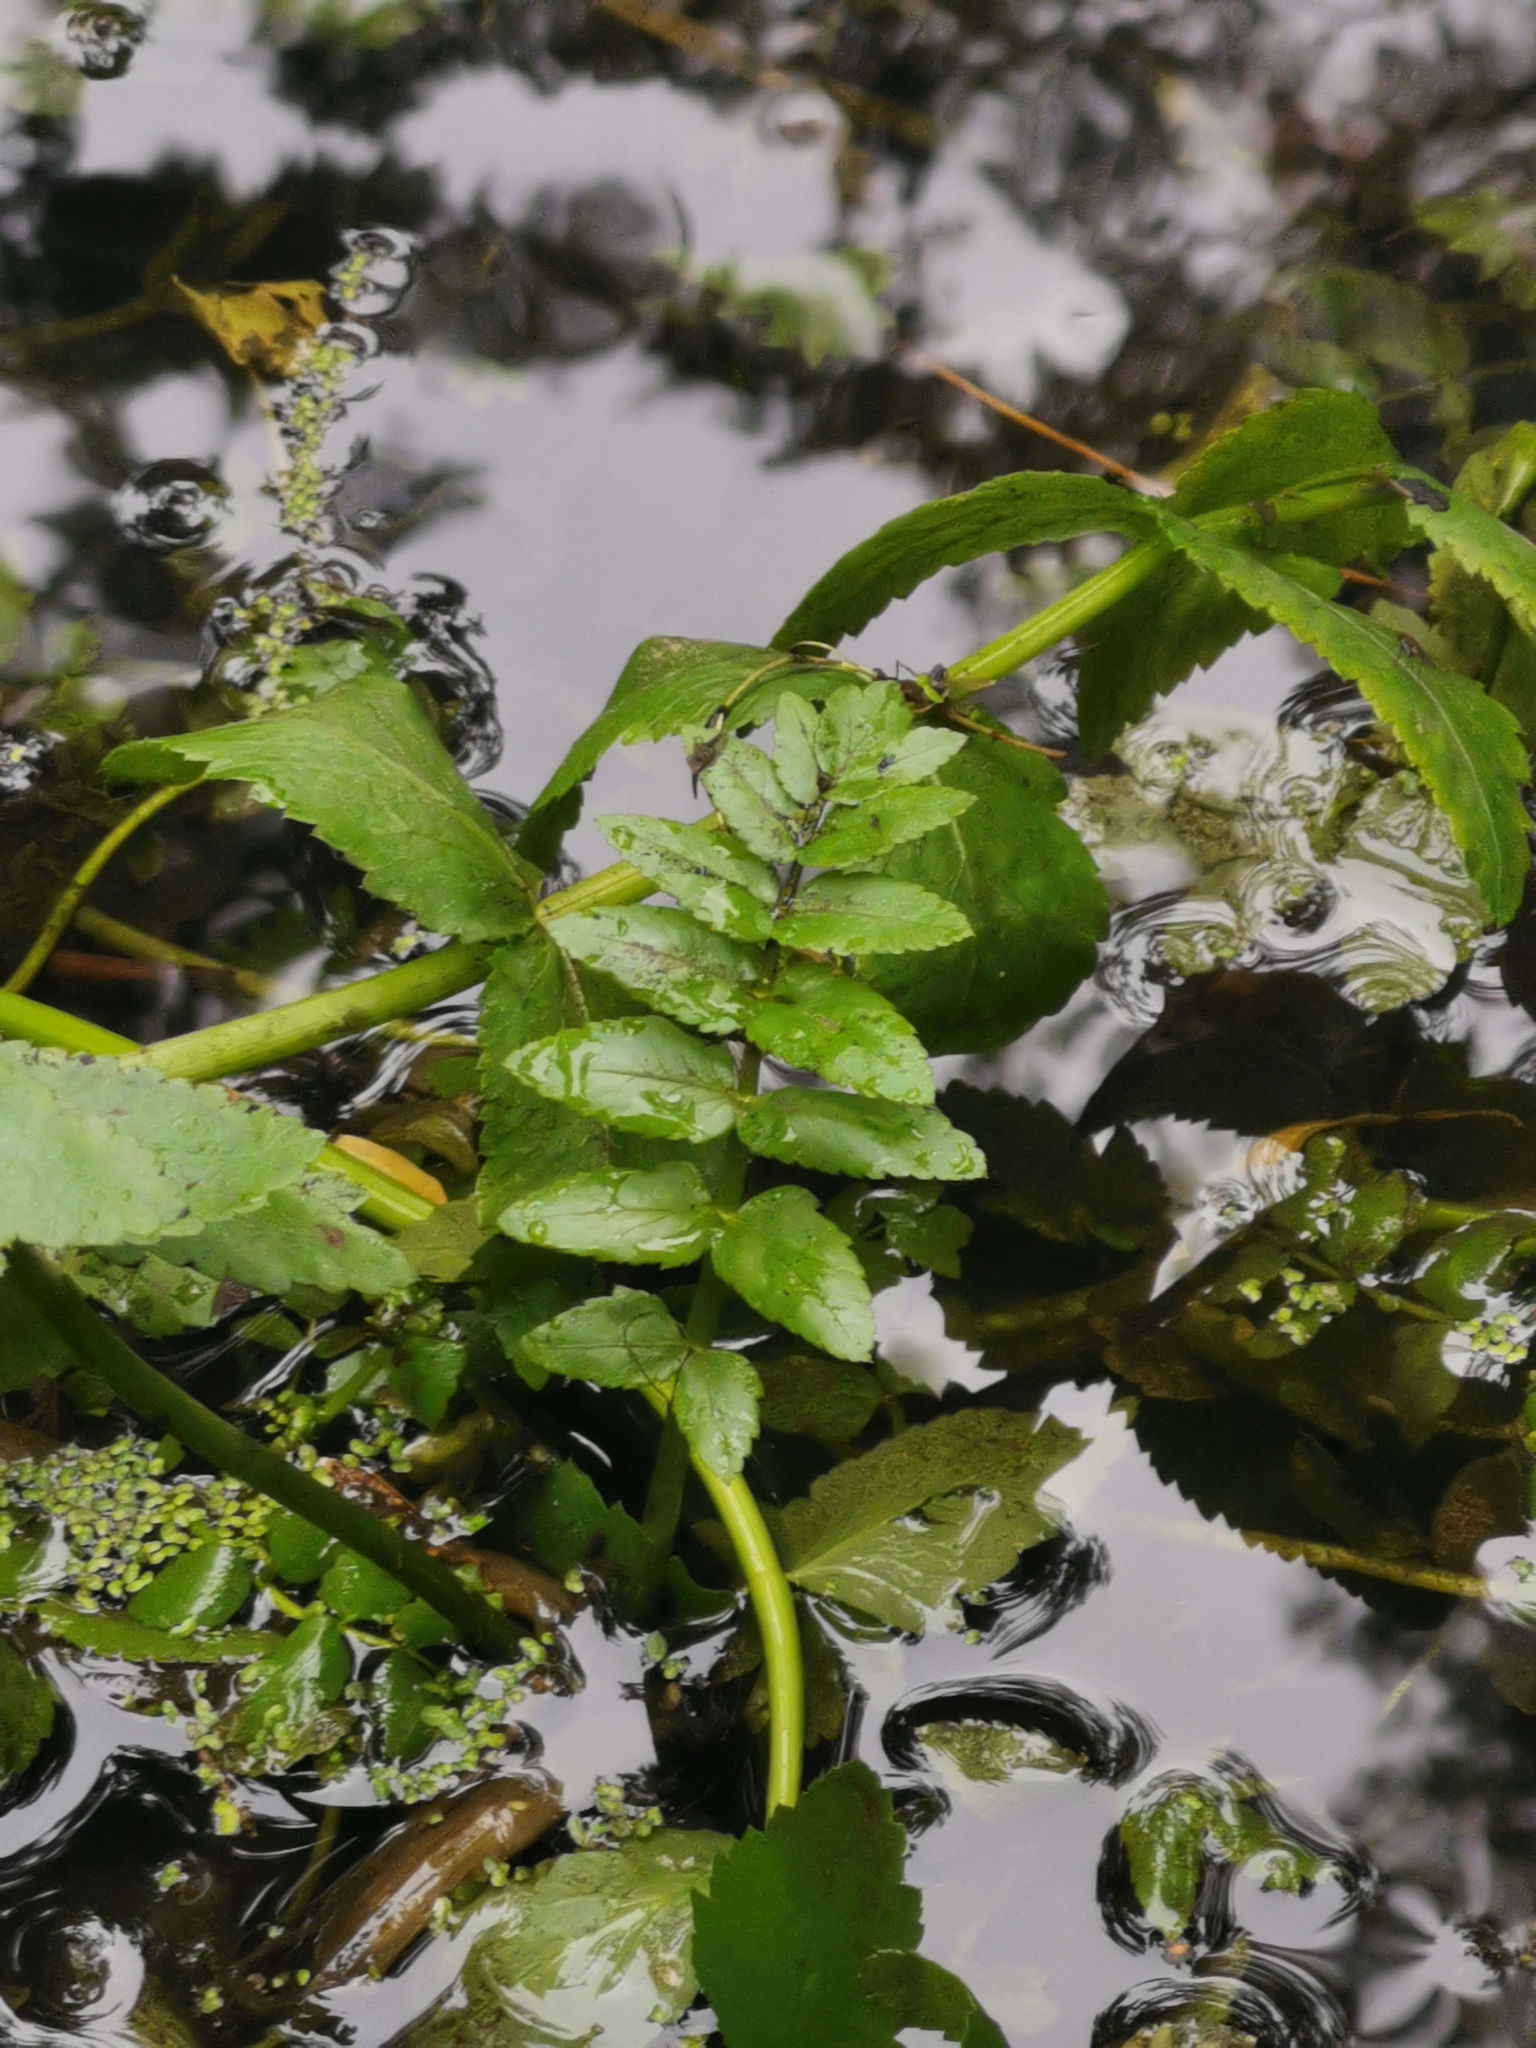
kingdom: Plantae
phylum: Tracheophyta
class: Magnoliopsida
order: Apiales
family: Apiaceae
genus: Berula
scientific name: Berula erecta
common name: Lesser water-parsnip
